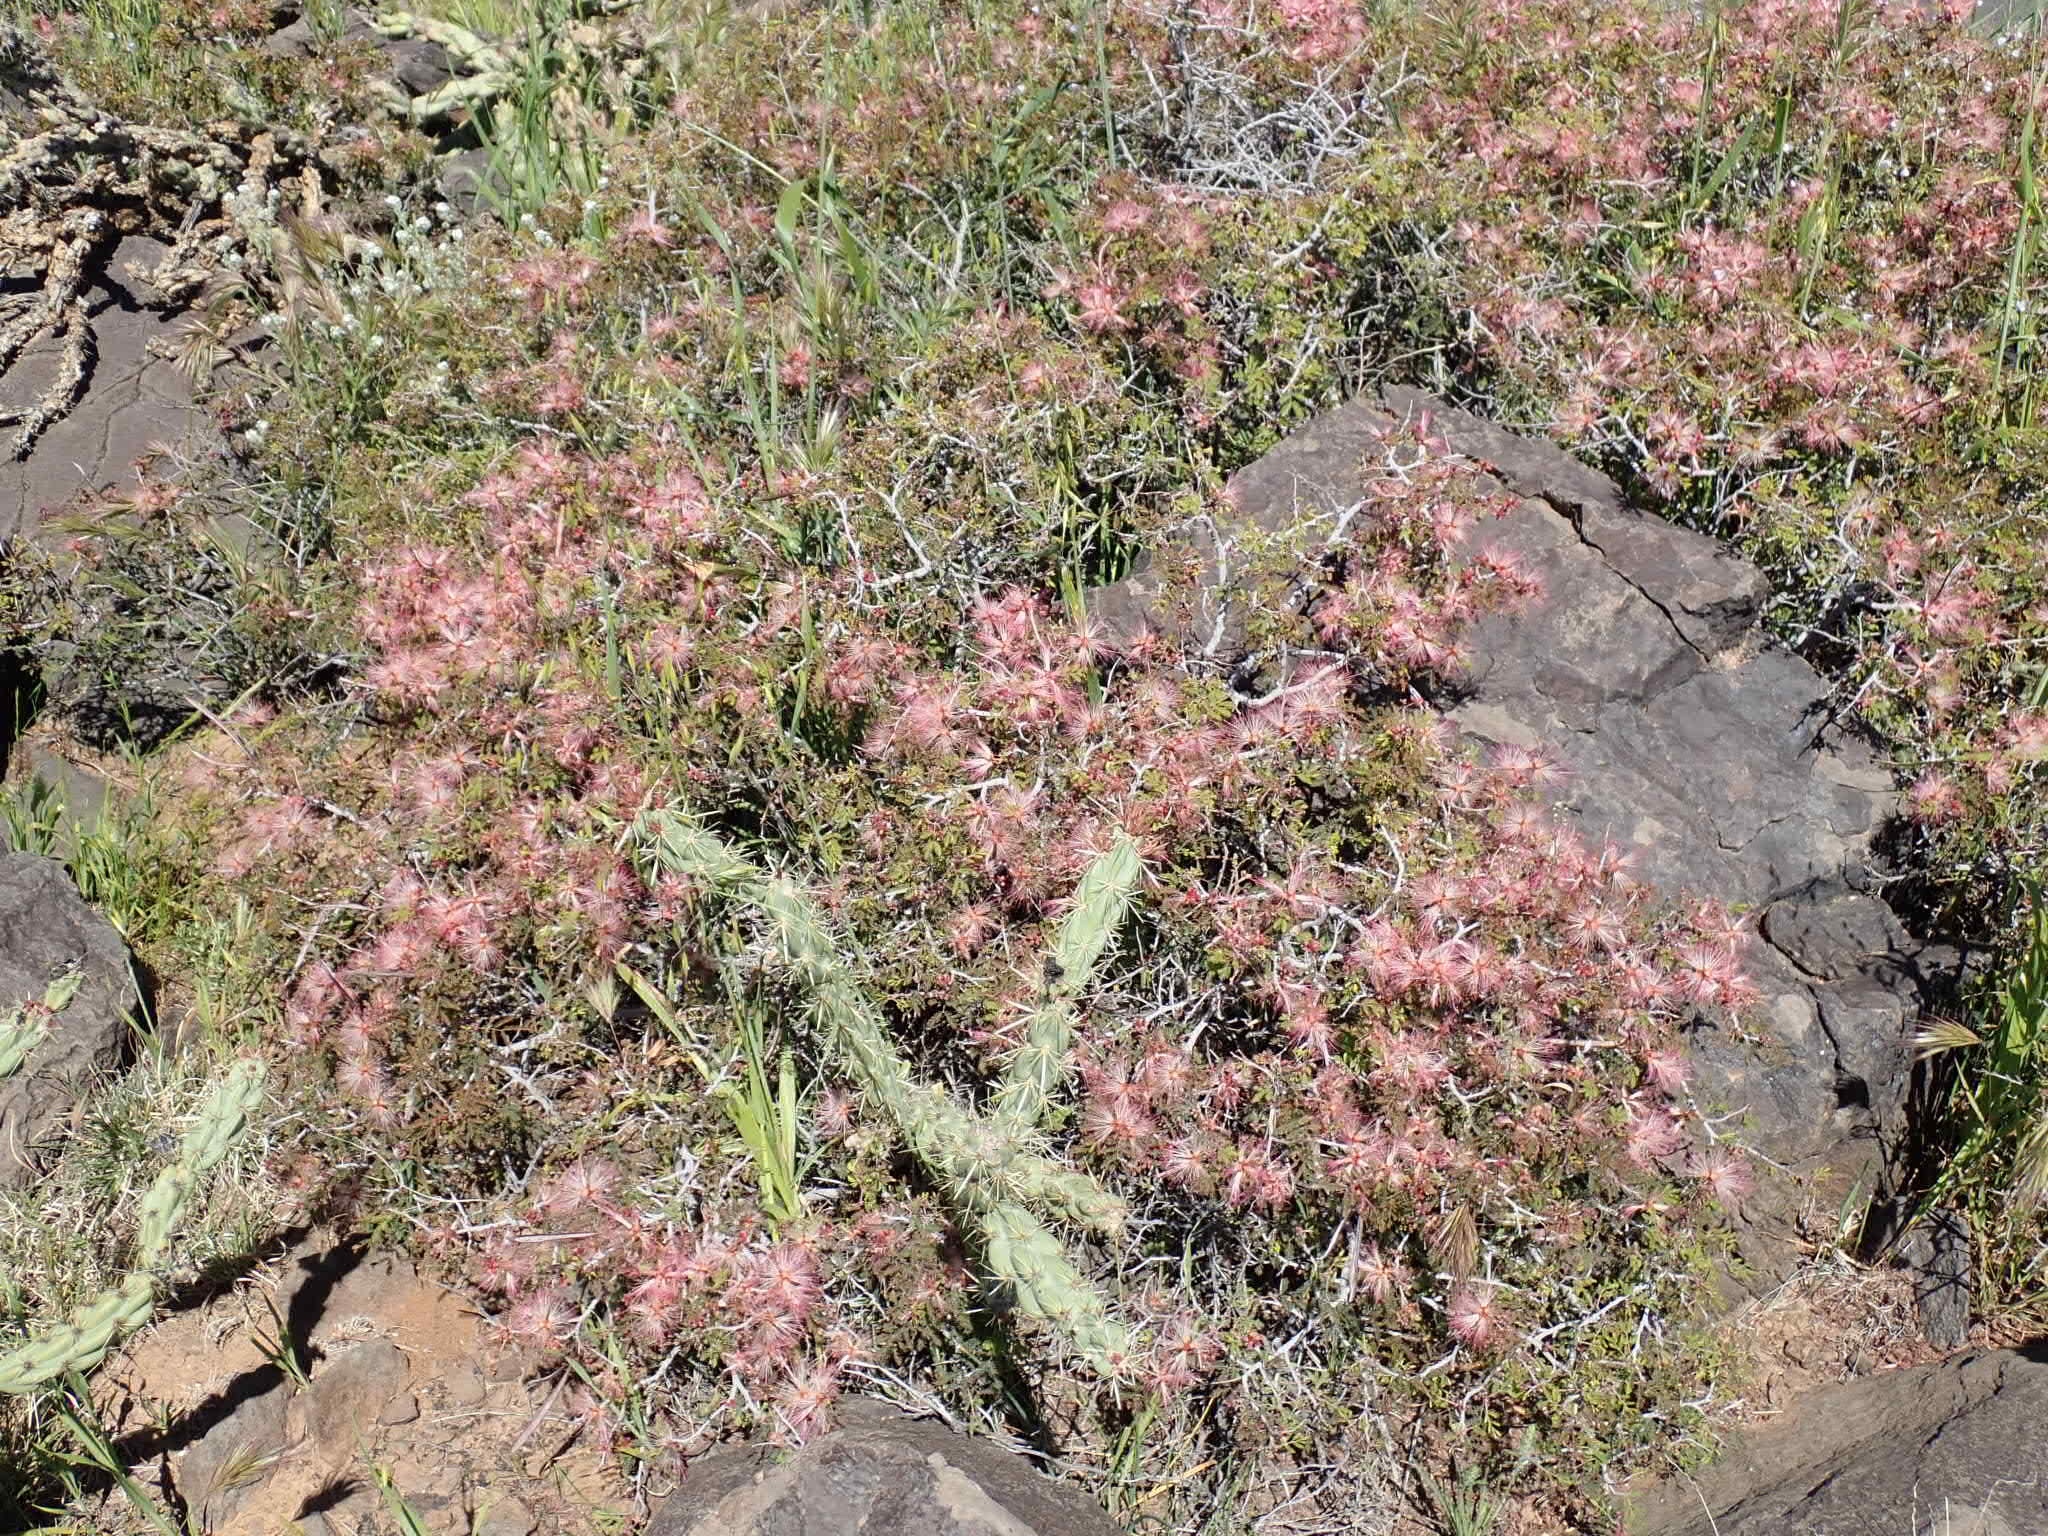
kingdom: Plantae
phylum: Tracheophyta
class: Magnoliopsida
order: Fabales
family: Fabaceae
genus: Calliandra
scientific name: Calliandra eriophylla
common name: Fairy-duster
